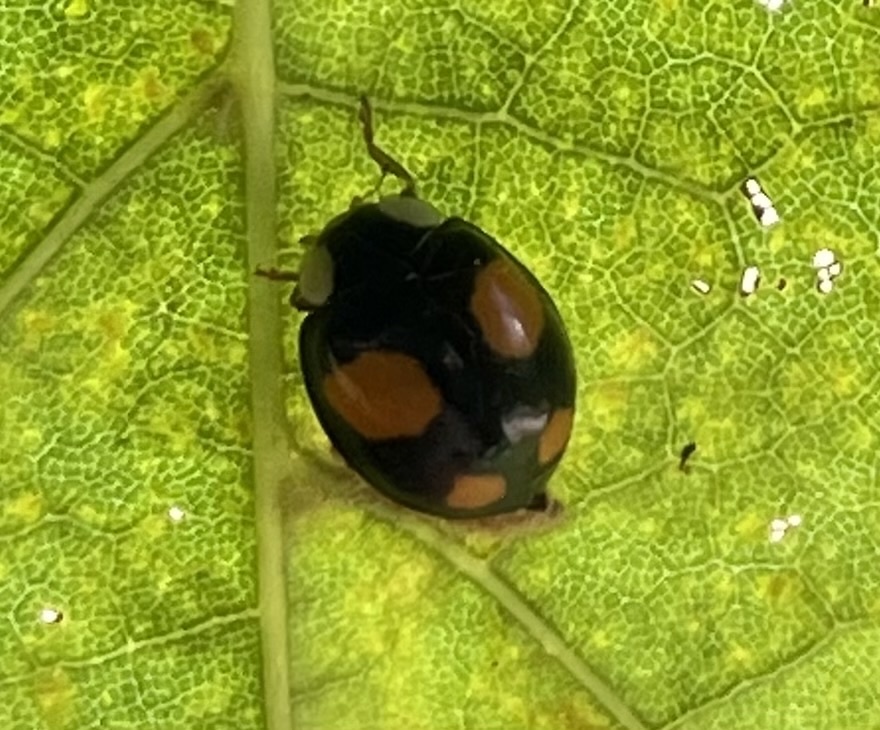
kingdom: Animalia
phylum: Arthropoda
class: Insecta
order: Coleoptera
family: Coccinellidae
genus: Harmonia
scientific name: Harmonia axyridis
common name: Harlequin ladybird
